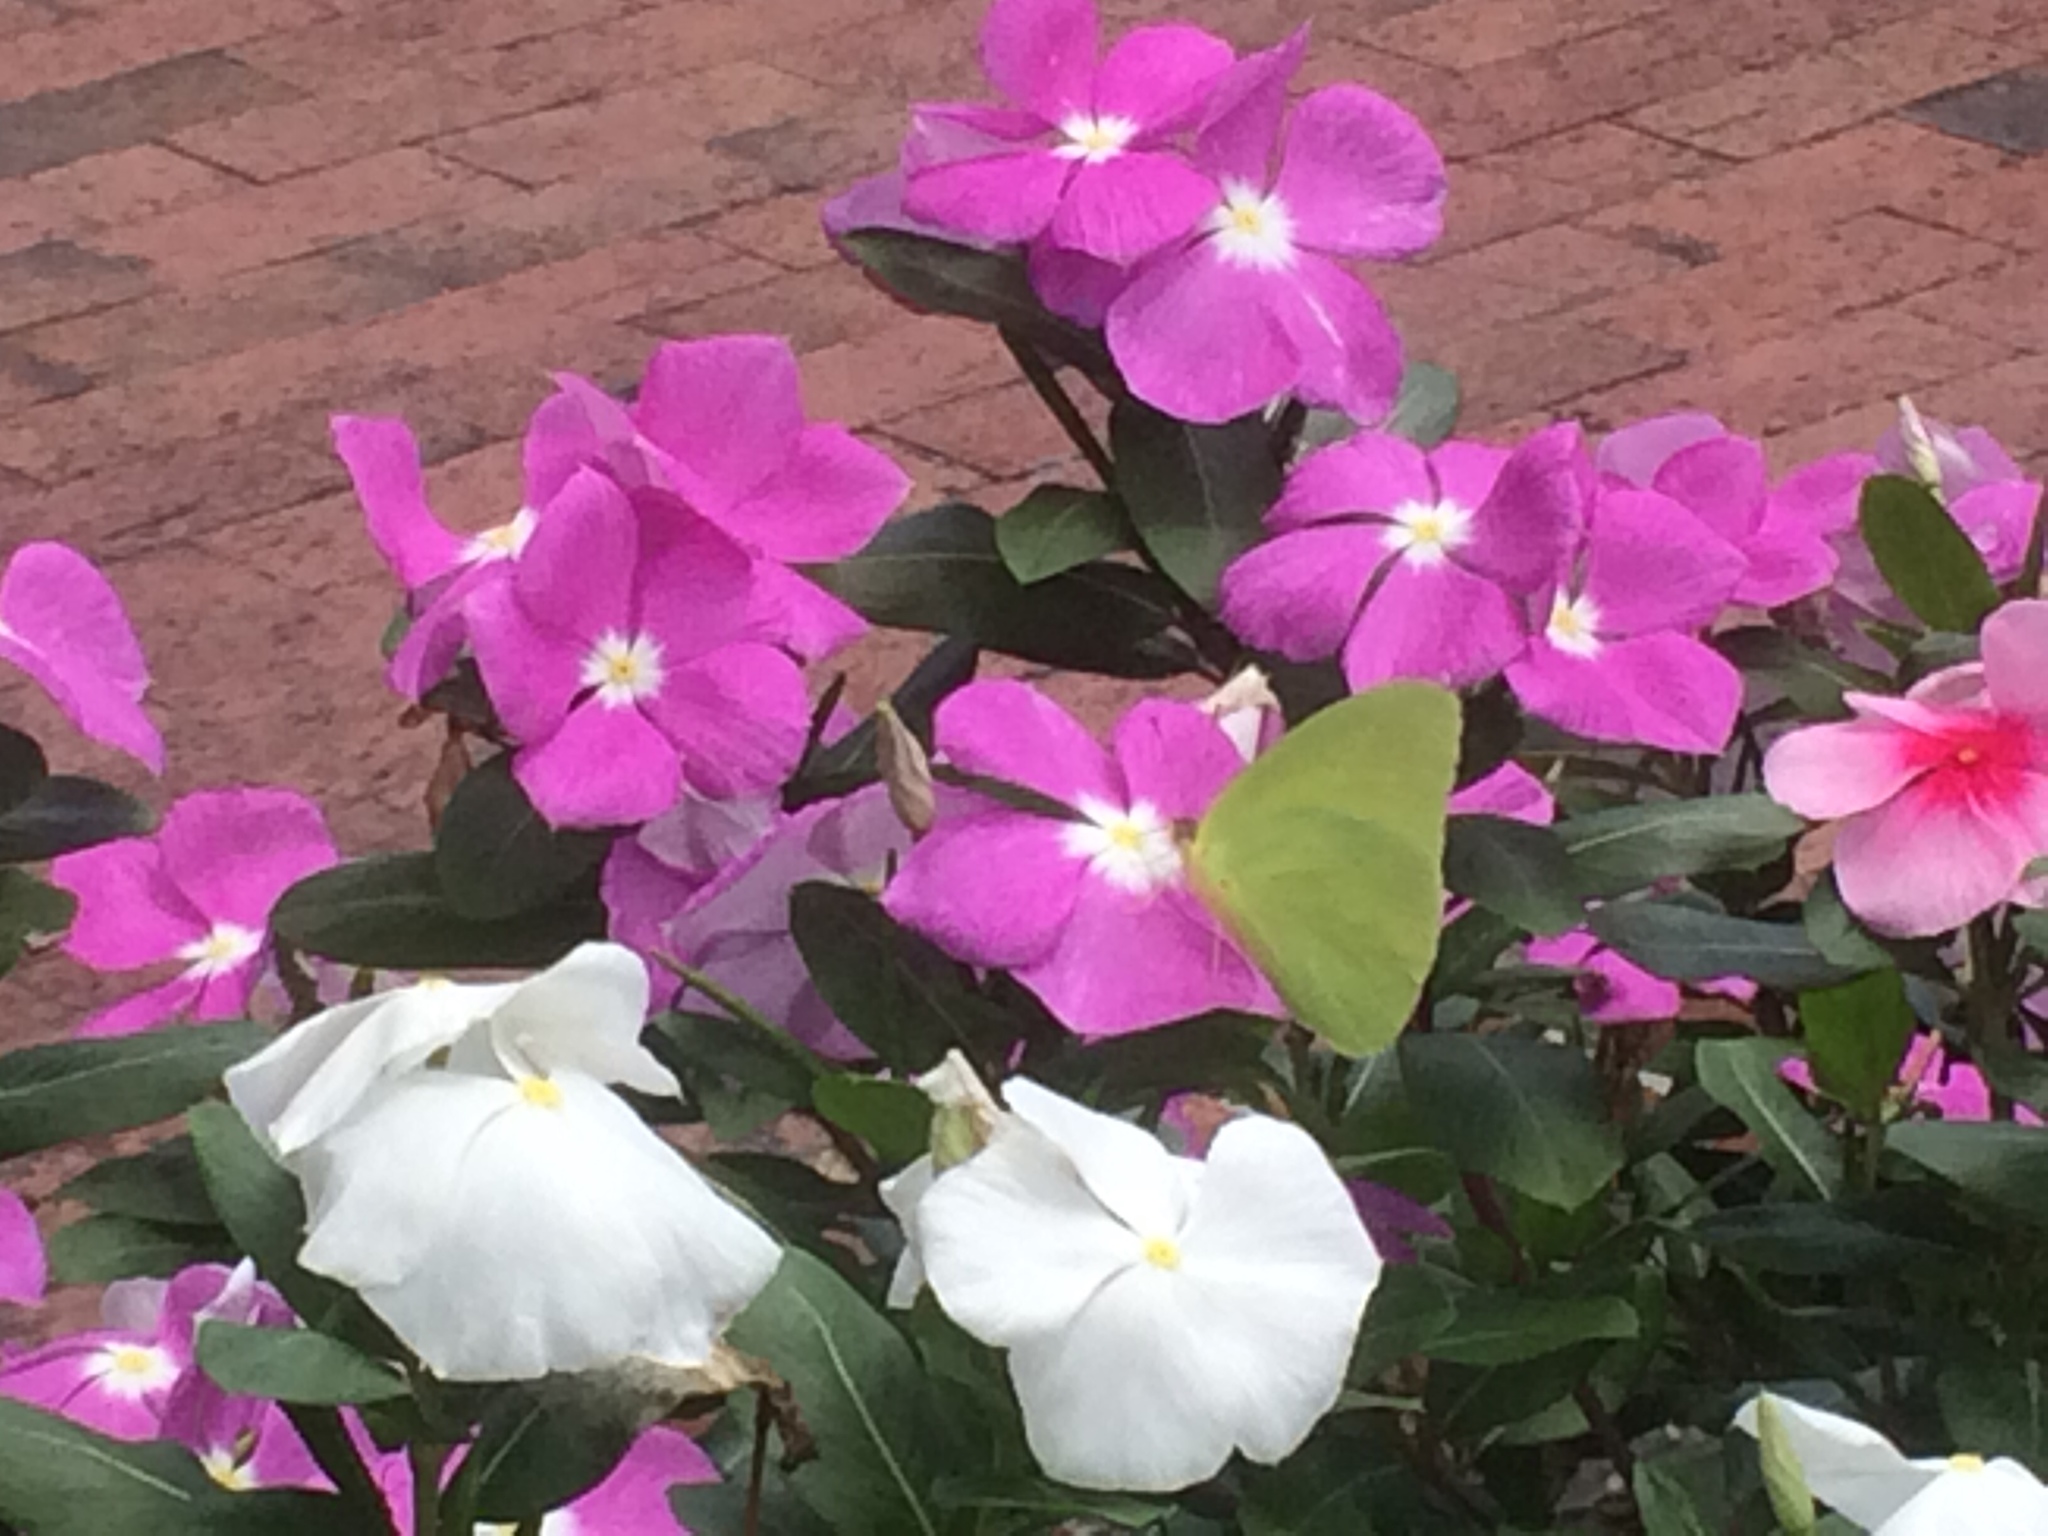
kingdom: Animalia
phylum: Arthropoda
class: Insecta
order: Lepidoptera
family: Pieridae
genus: Phoebis
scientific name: Phoebis sennae
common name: Cloudless sulphur
